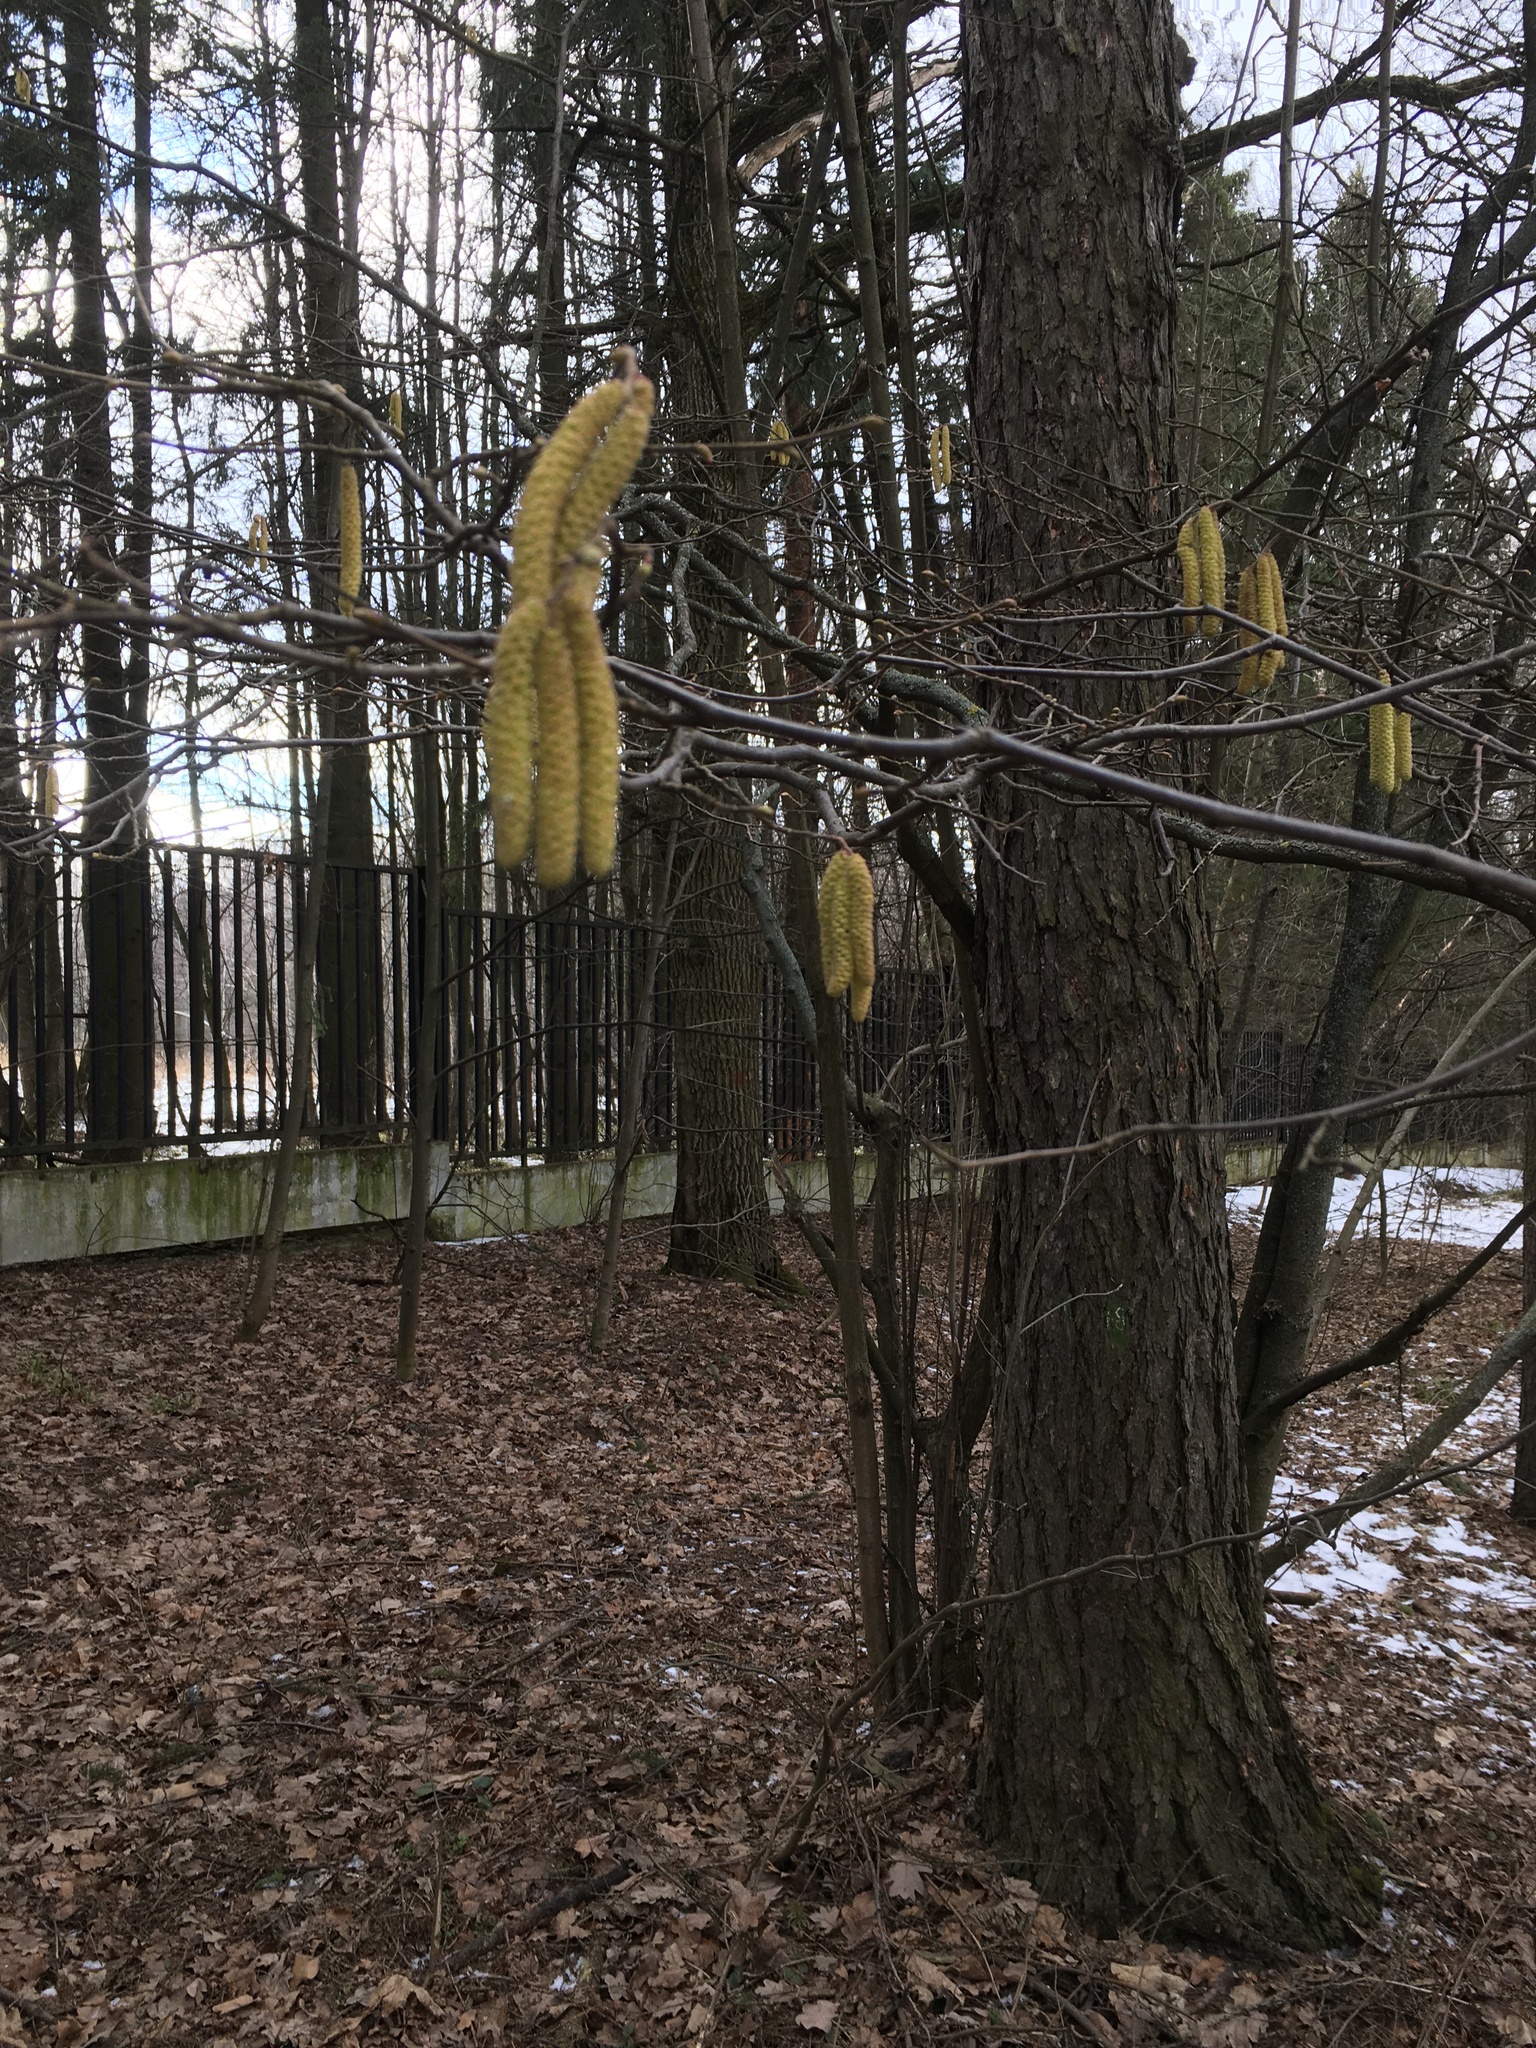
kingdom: Plantae
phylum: Tracheophyta
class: Magnoliopsida
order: Fagales
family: Betulaceae
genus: Corylus
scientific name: Corylus avellana
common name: European hazel
